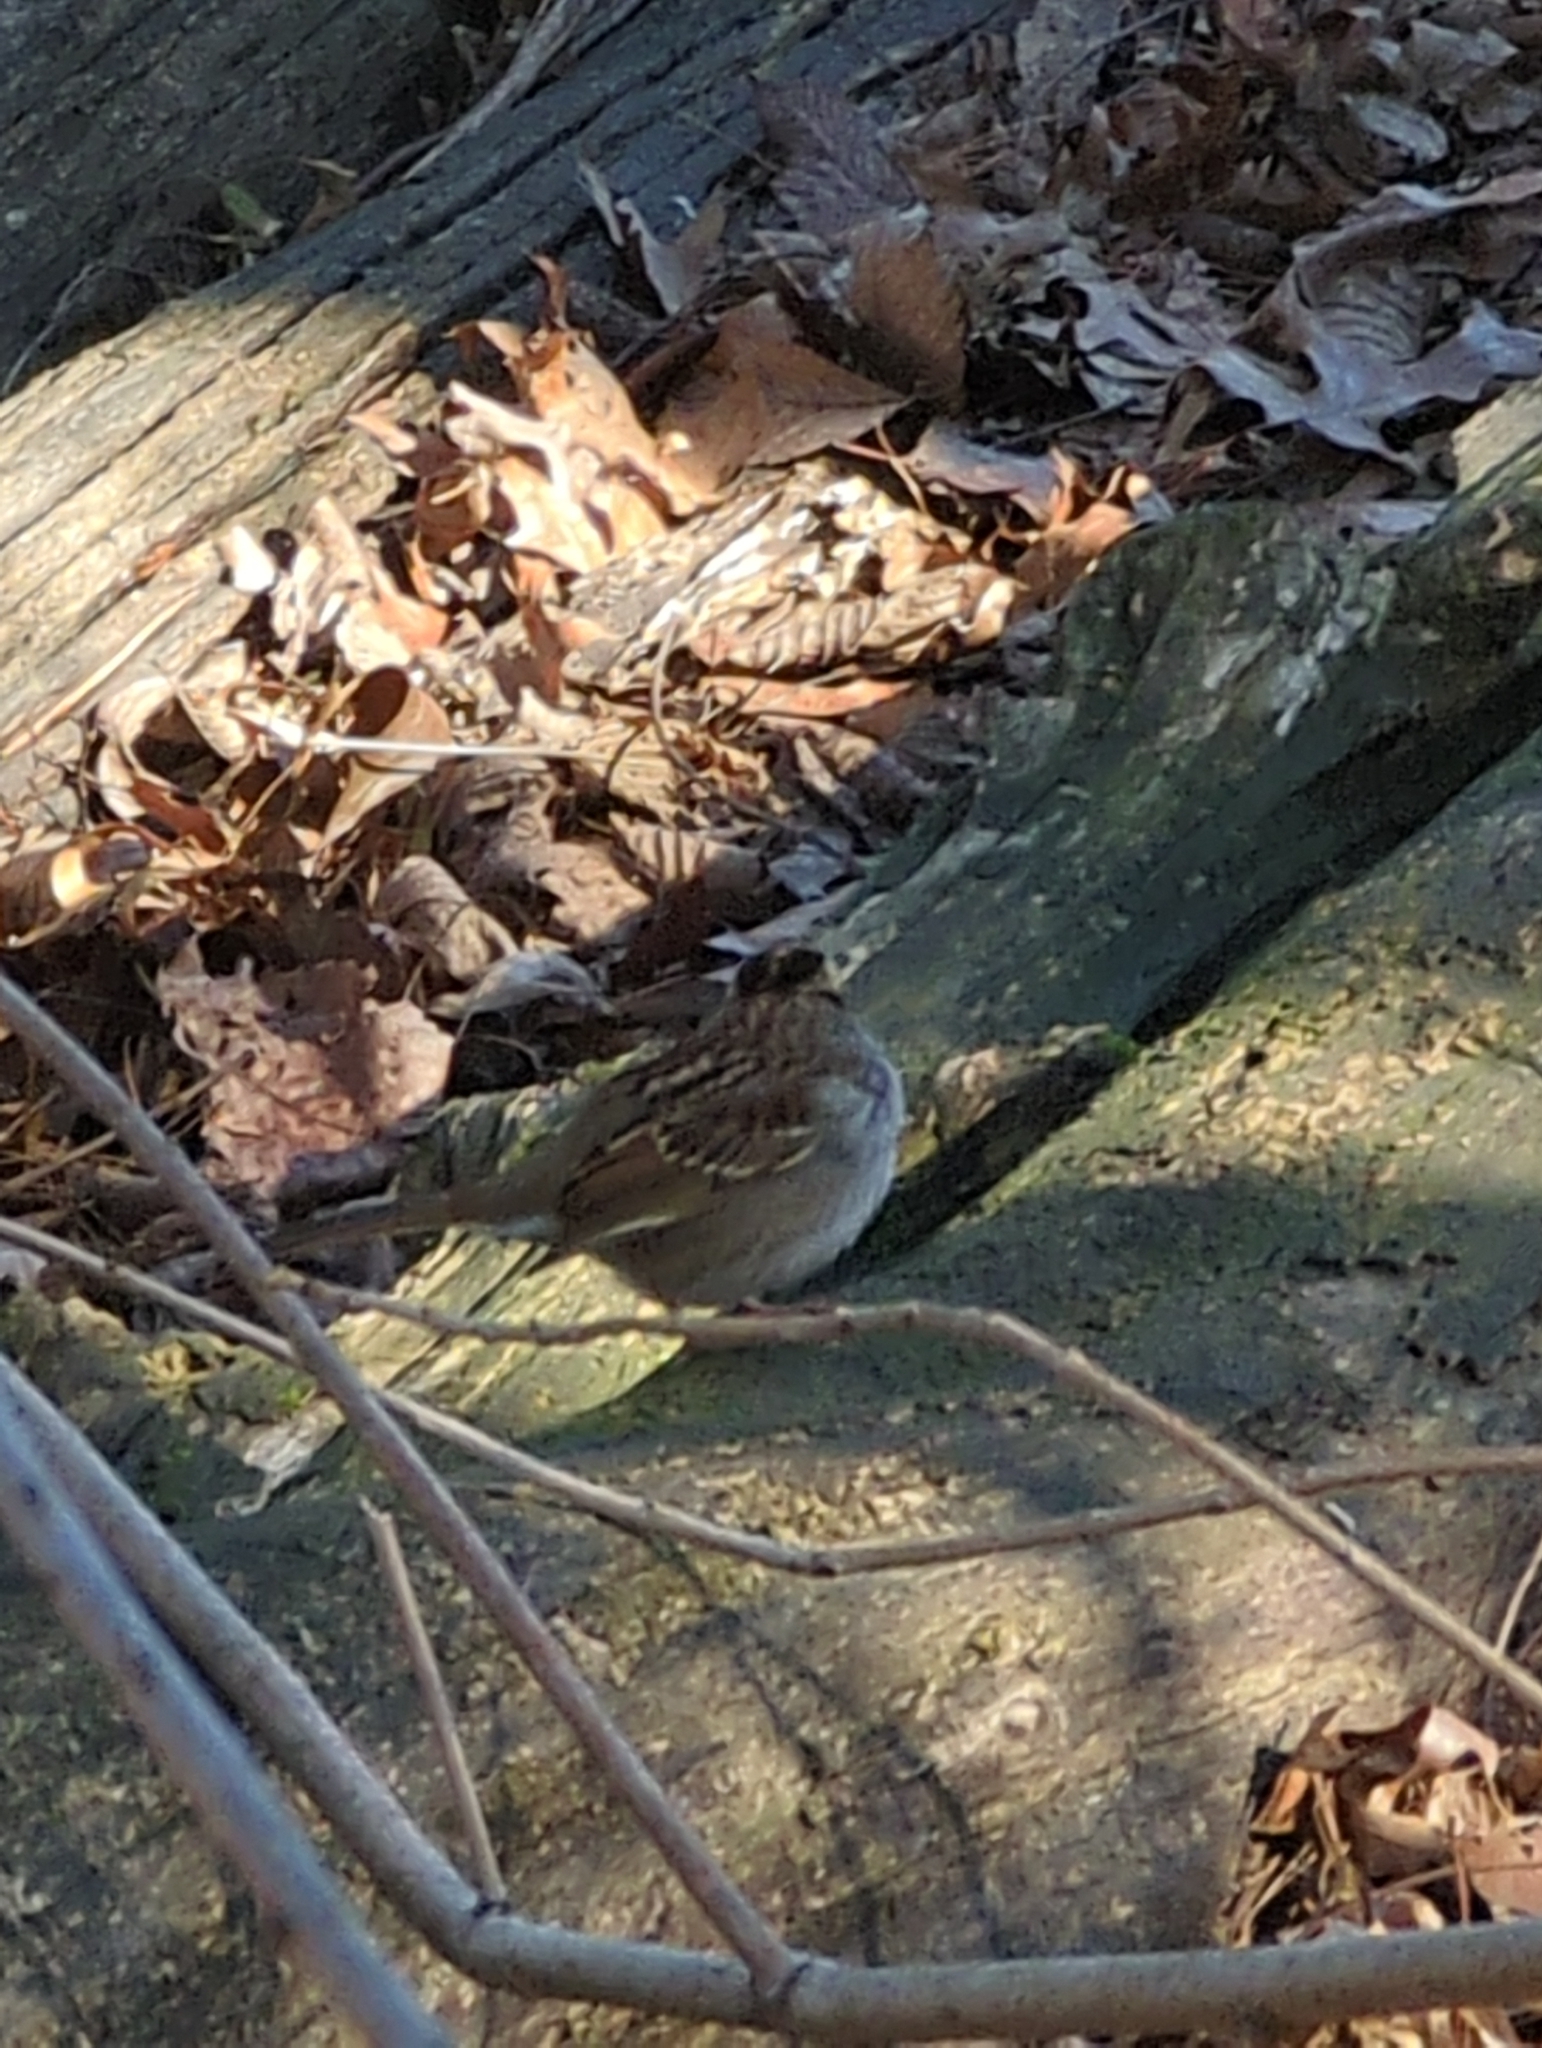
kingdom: Animalia
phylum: Chordata
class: Aves
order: Passeriformes
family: Passerellidae
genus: Zonotrichia
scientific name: Zonotrichia albicollis
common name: White-throated sparrow
